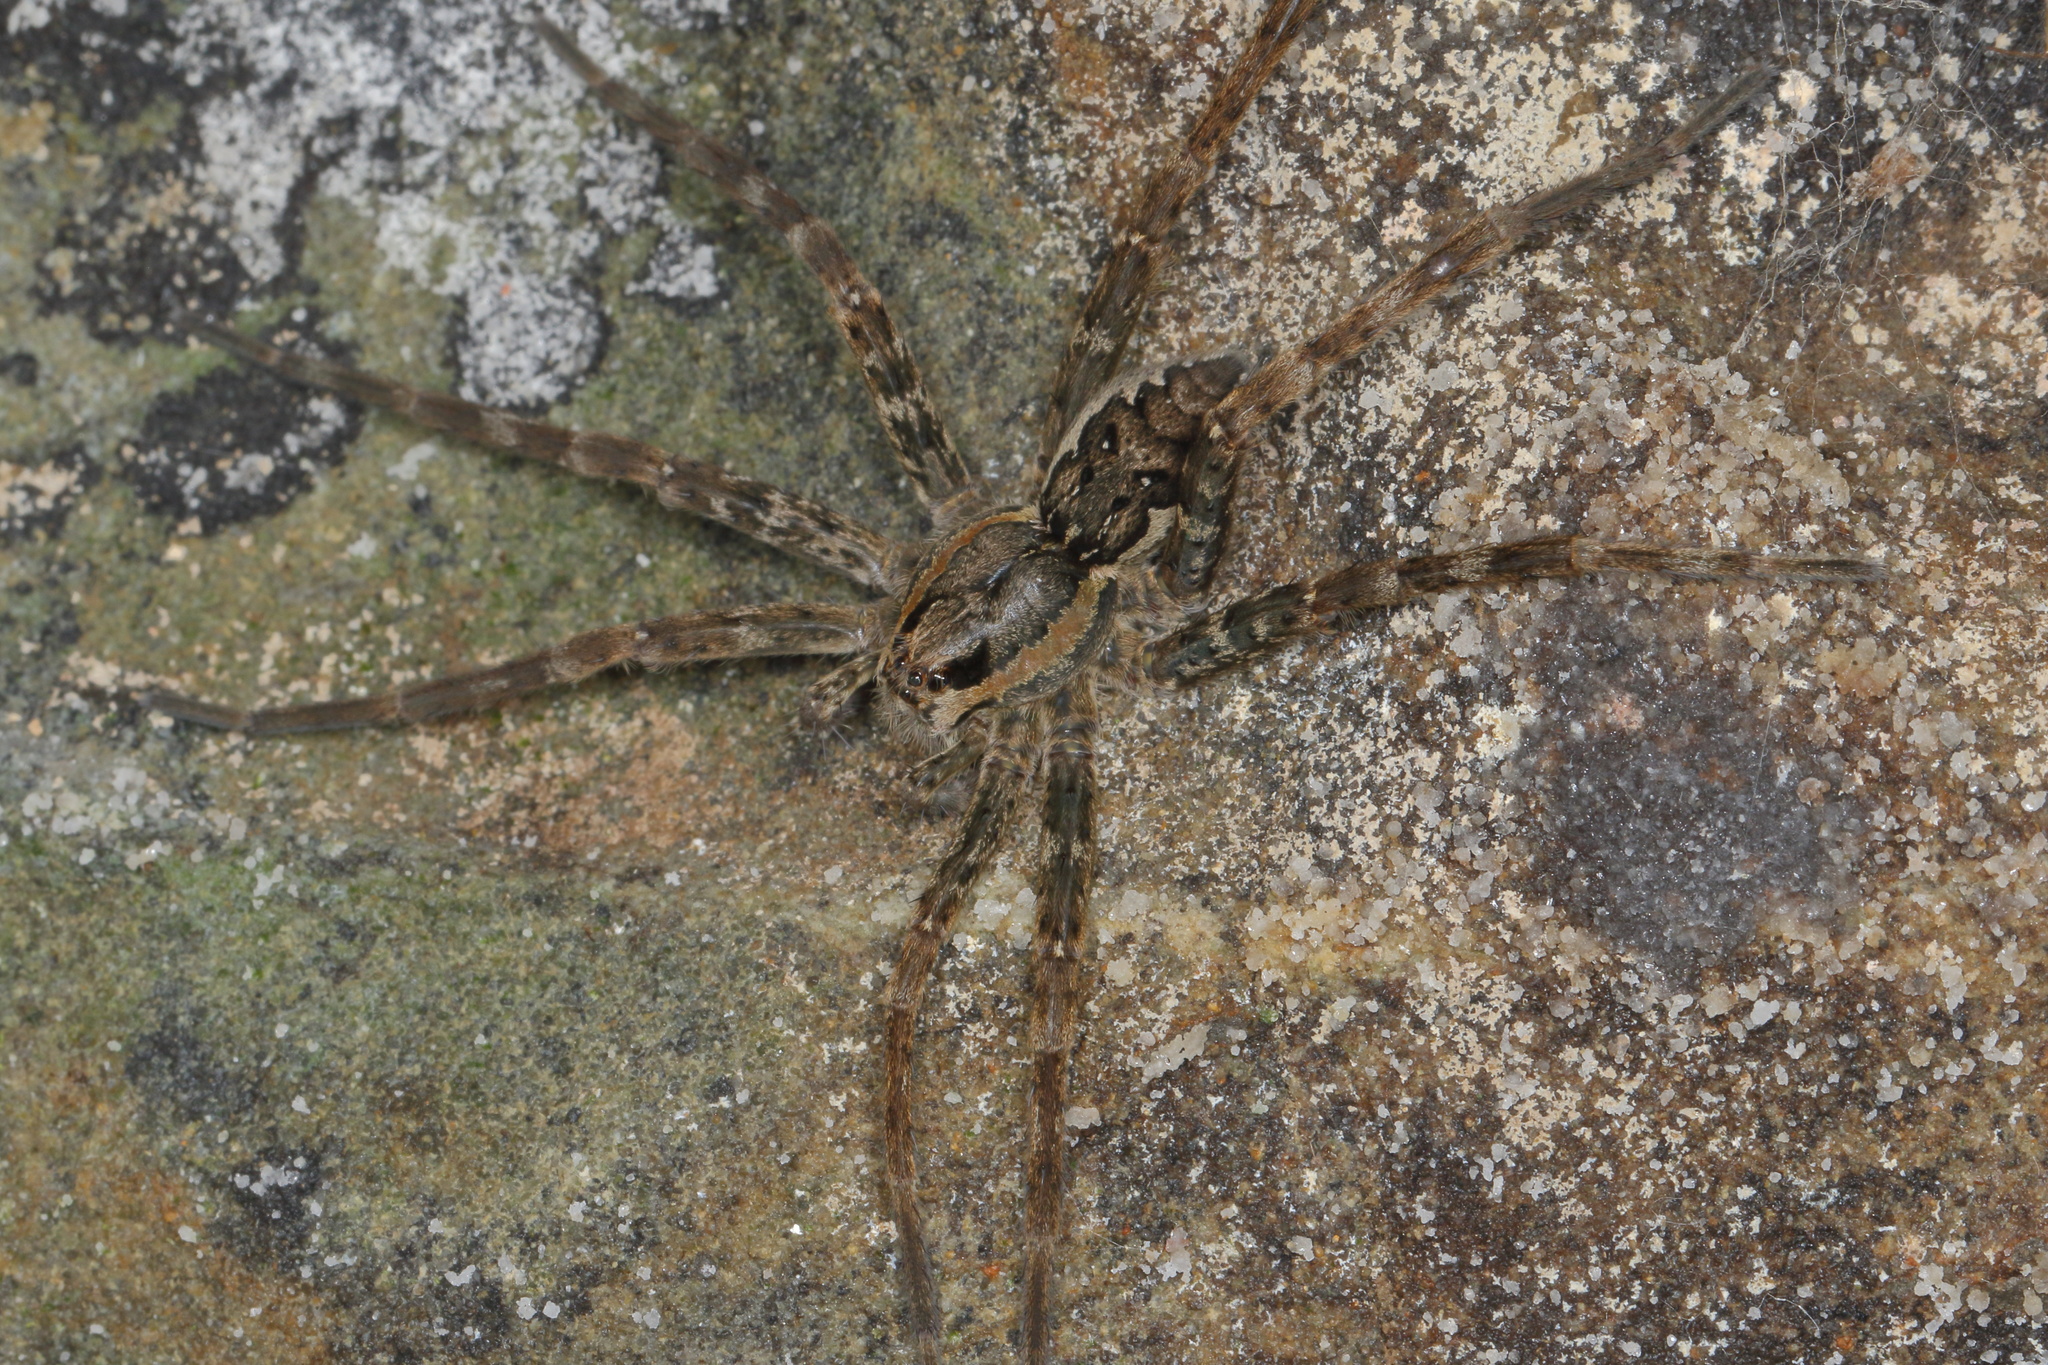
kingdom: Animalia
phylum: Arthropoda
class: Arachnida
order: Araneae
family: Pisauridae
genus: Dolomedes
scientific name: Dolomedes dondalei
